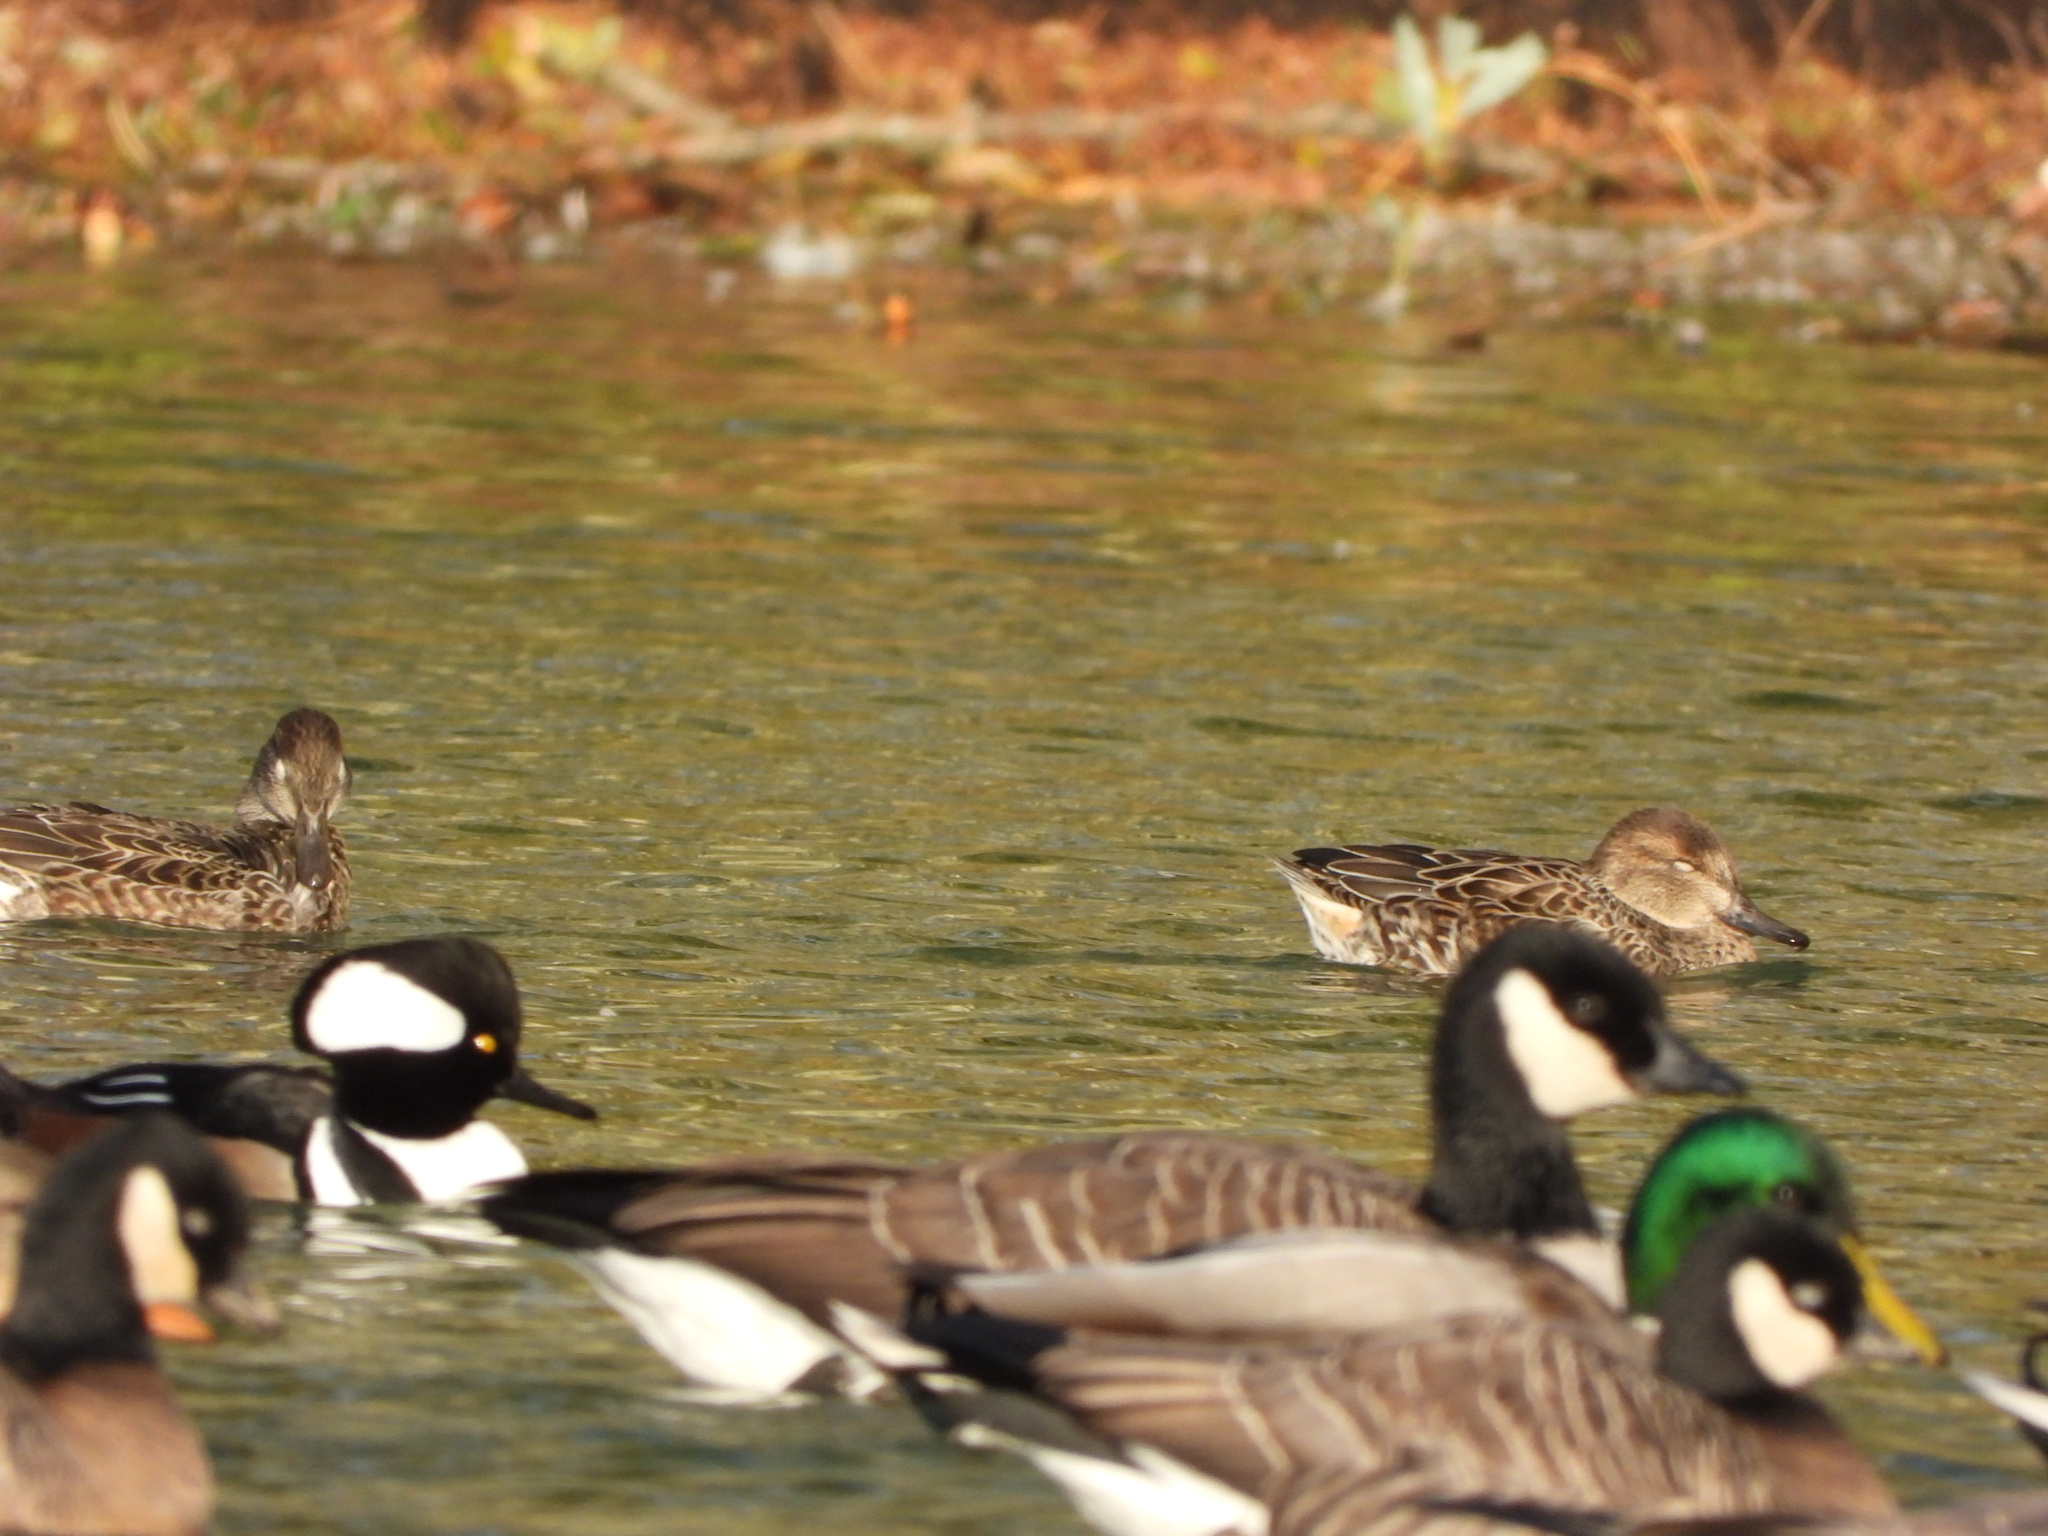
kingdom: Animalia
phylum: Chordata
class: Aves
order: Anseriformes
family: Anatidae
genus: Anas
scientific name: Anas crecca
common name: Eurasian teal
